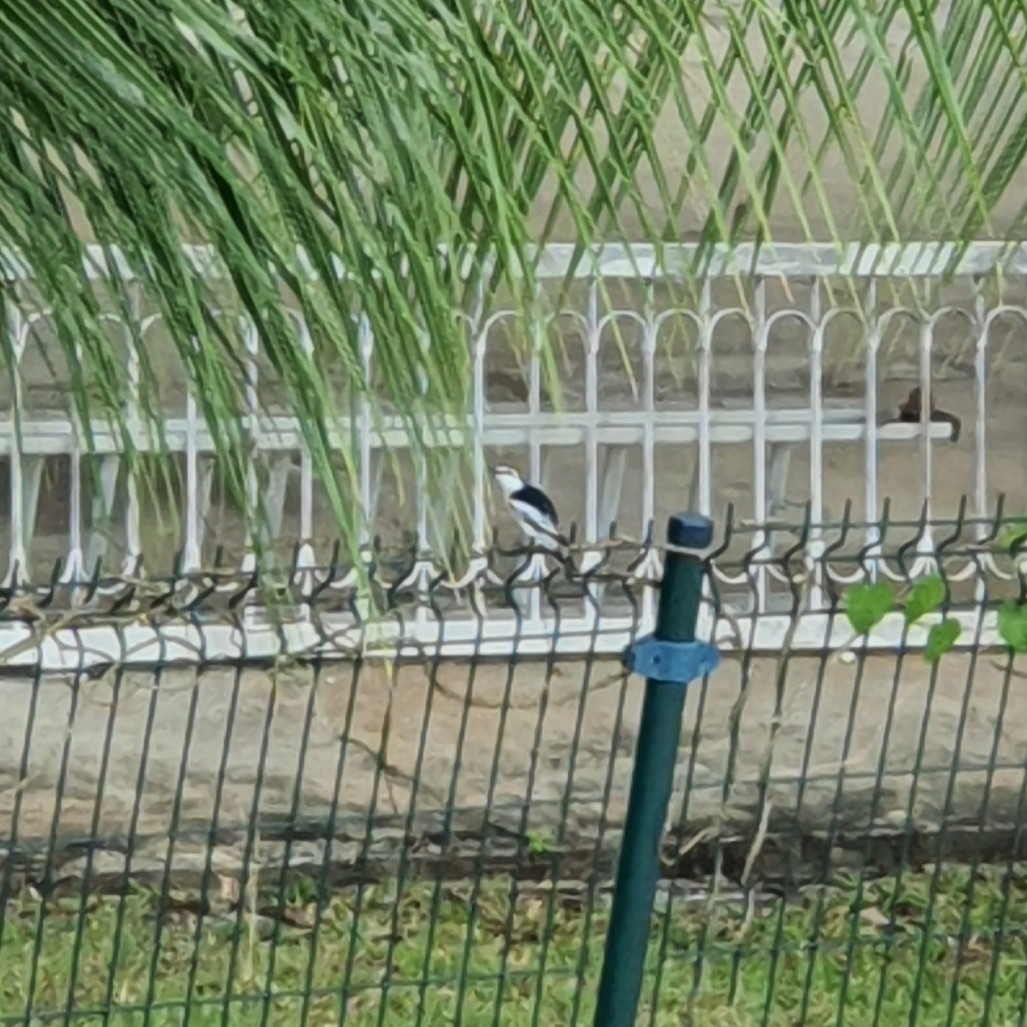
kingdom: Animalia
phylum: Chordata
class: Aves
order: Passeriformes
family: Campephagidae
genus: Lalage
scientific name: Lalage nigra
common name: Pied triller
